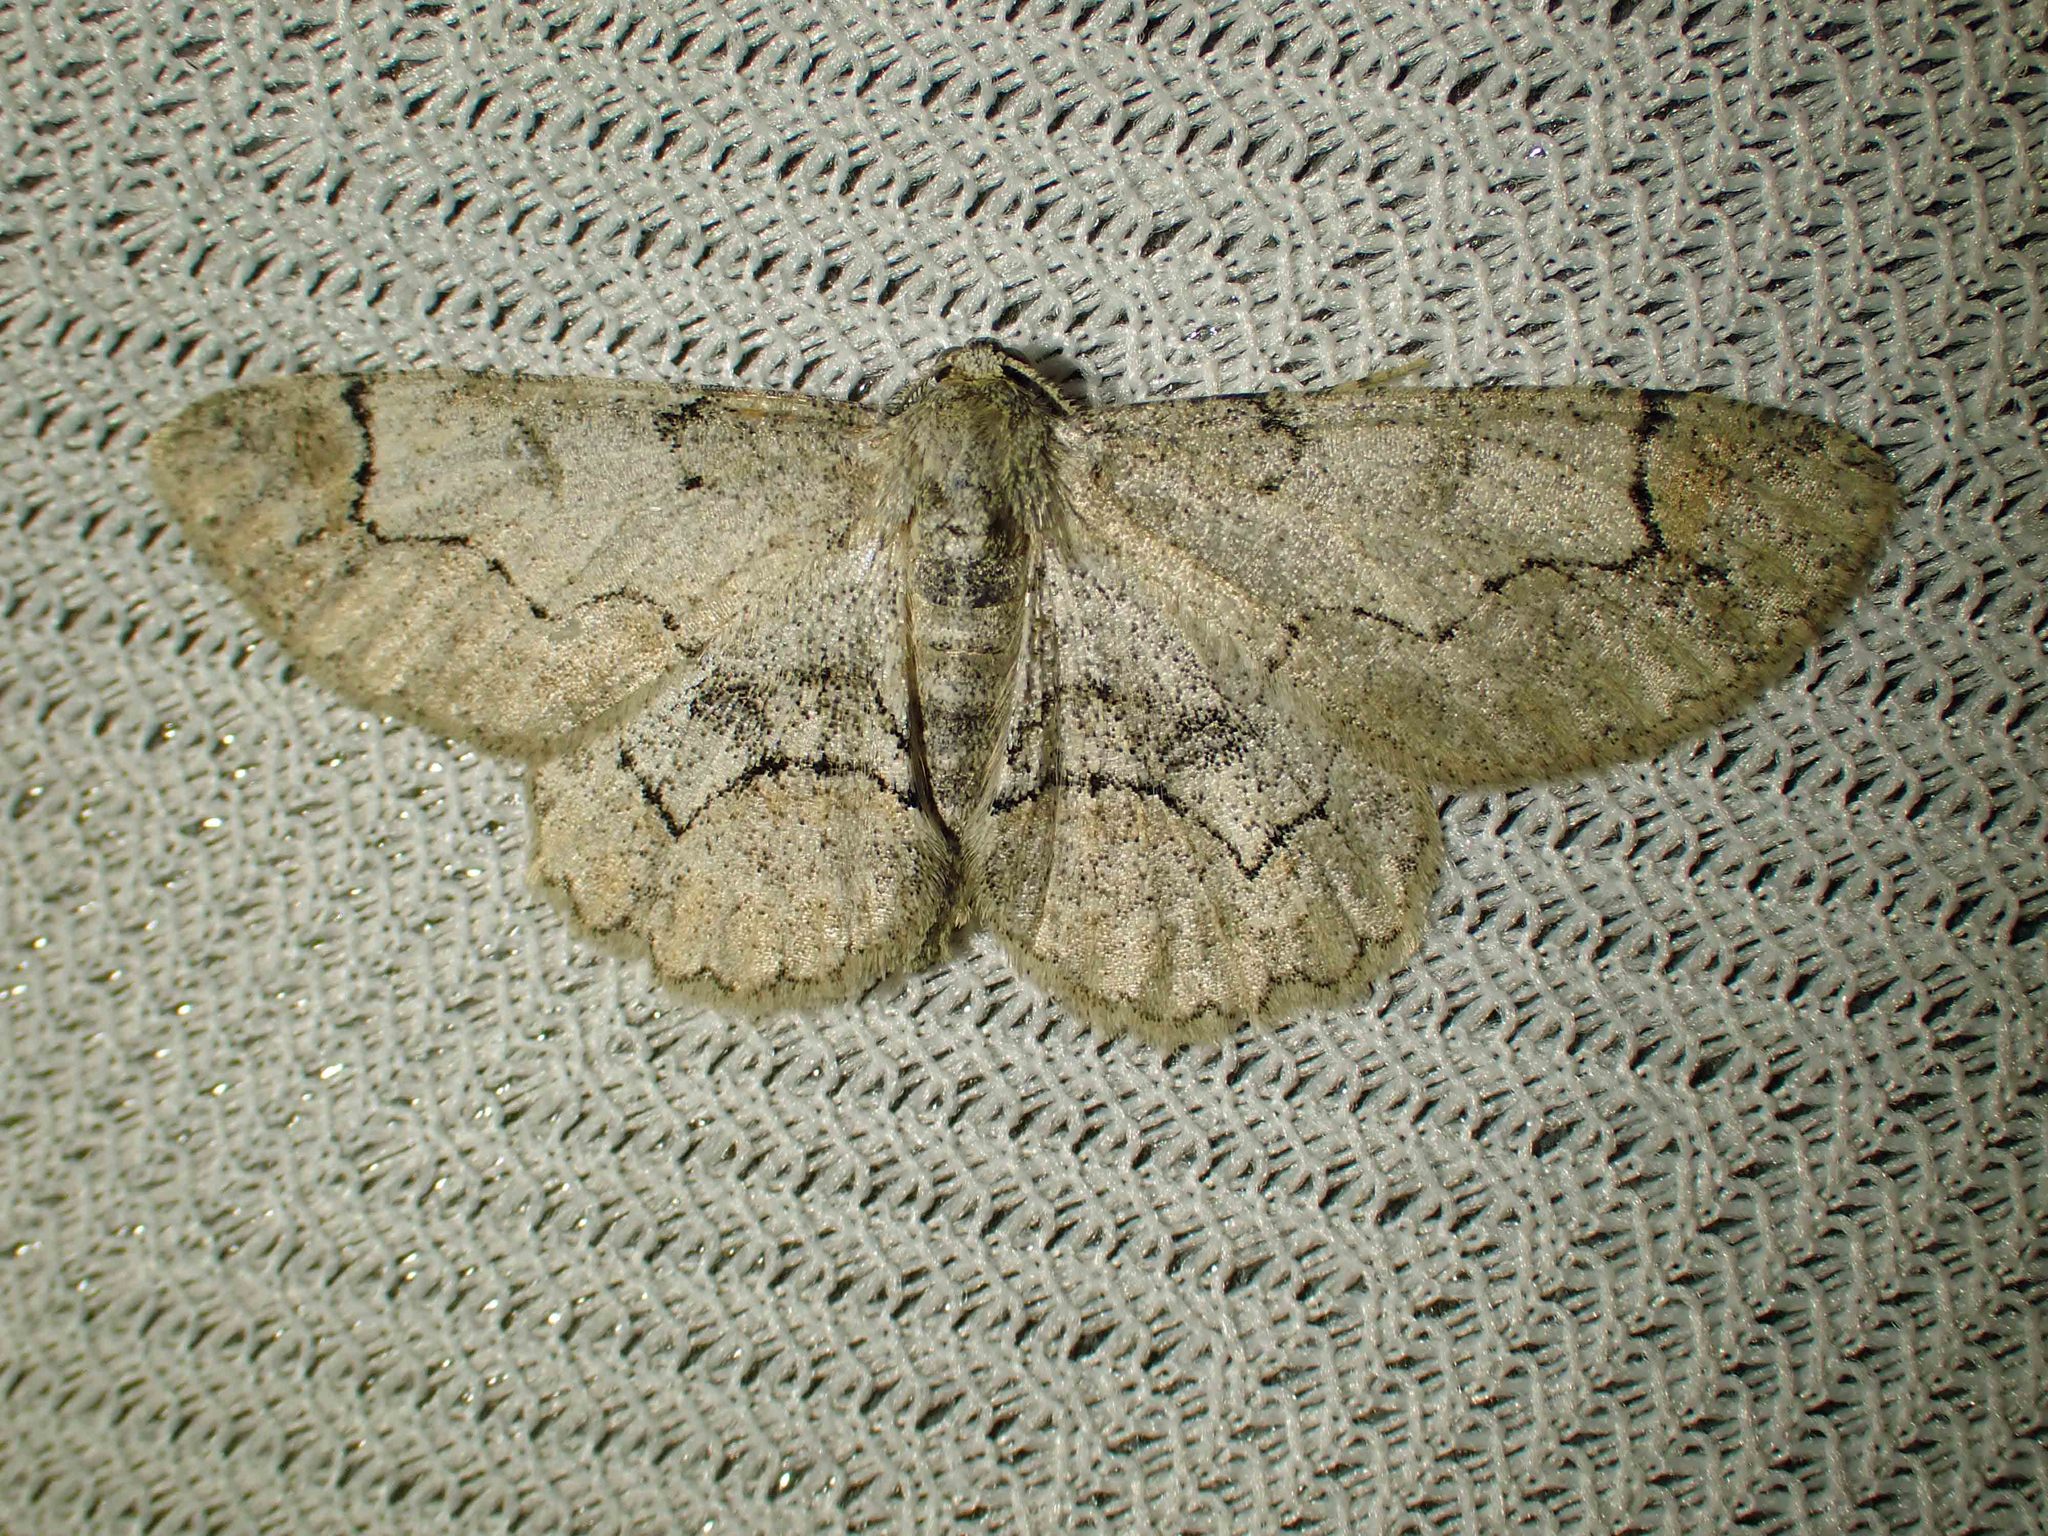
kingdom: Animalia
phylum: Arthropoda
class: Insecta
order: Lepidoptera
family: Geometridae
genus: Iridopsis
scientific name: Iridopsis larvaria
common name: Bent-line gray
